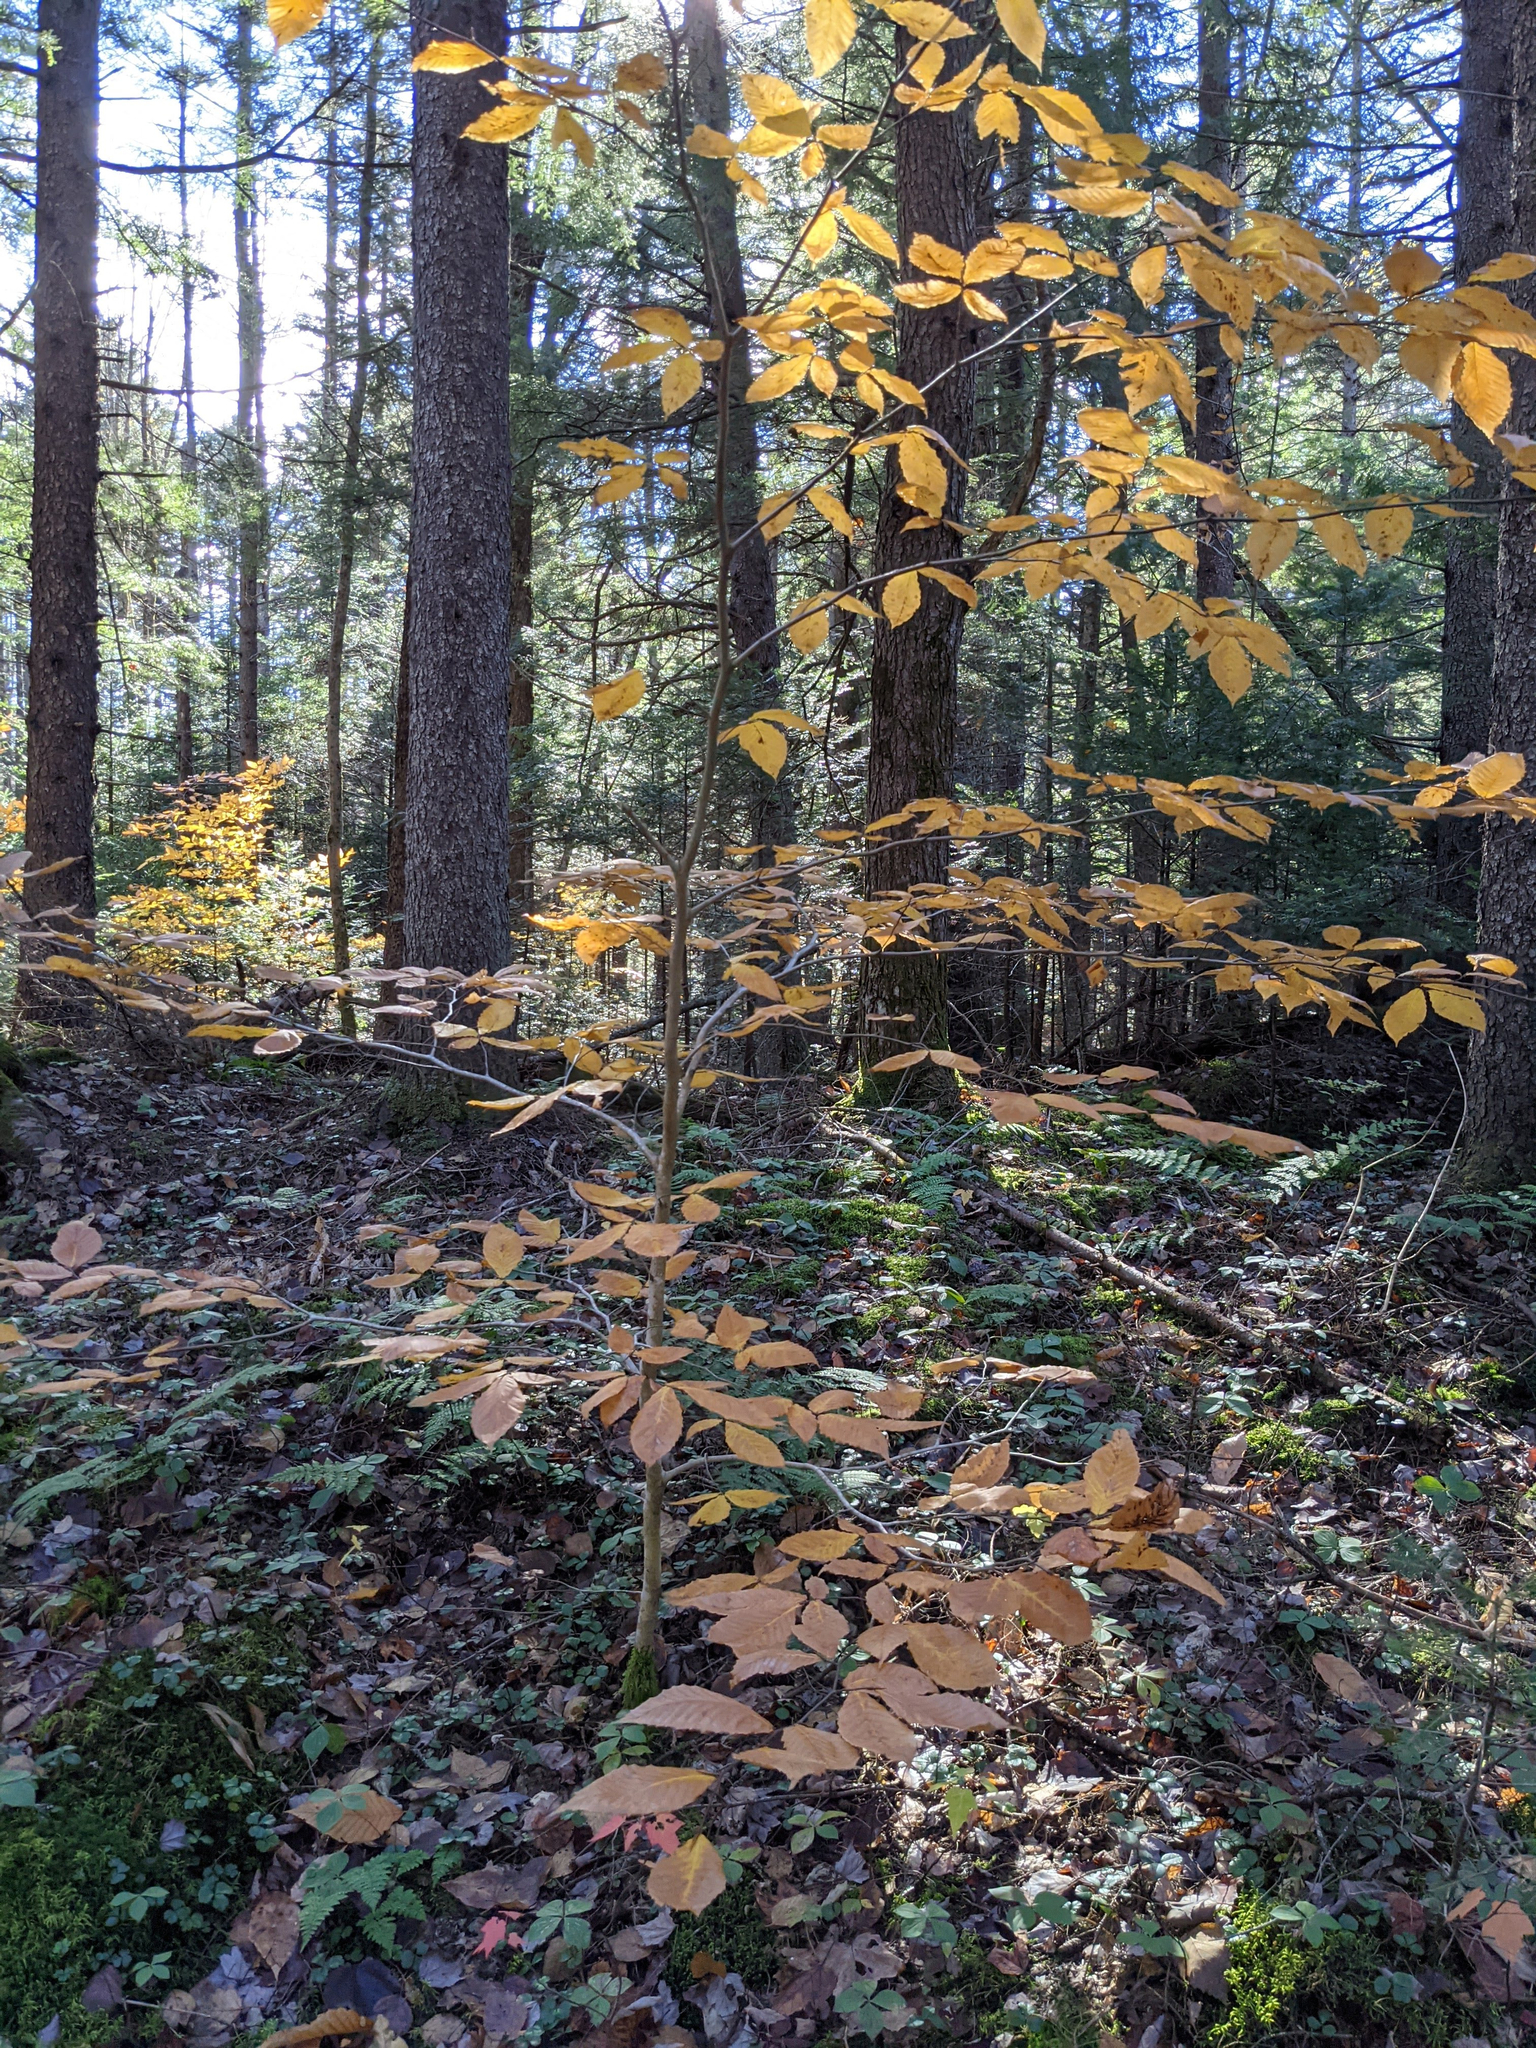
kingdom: Plantae
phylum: Tracheophyta
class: Magnoliopsida
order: Fagales
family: Fagaceae
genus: Fagus
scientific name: Fagus grandifolia
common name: American beech
